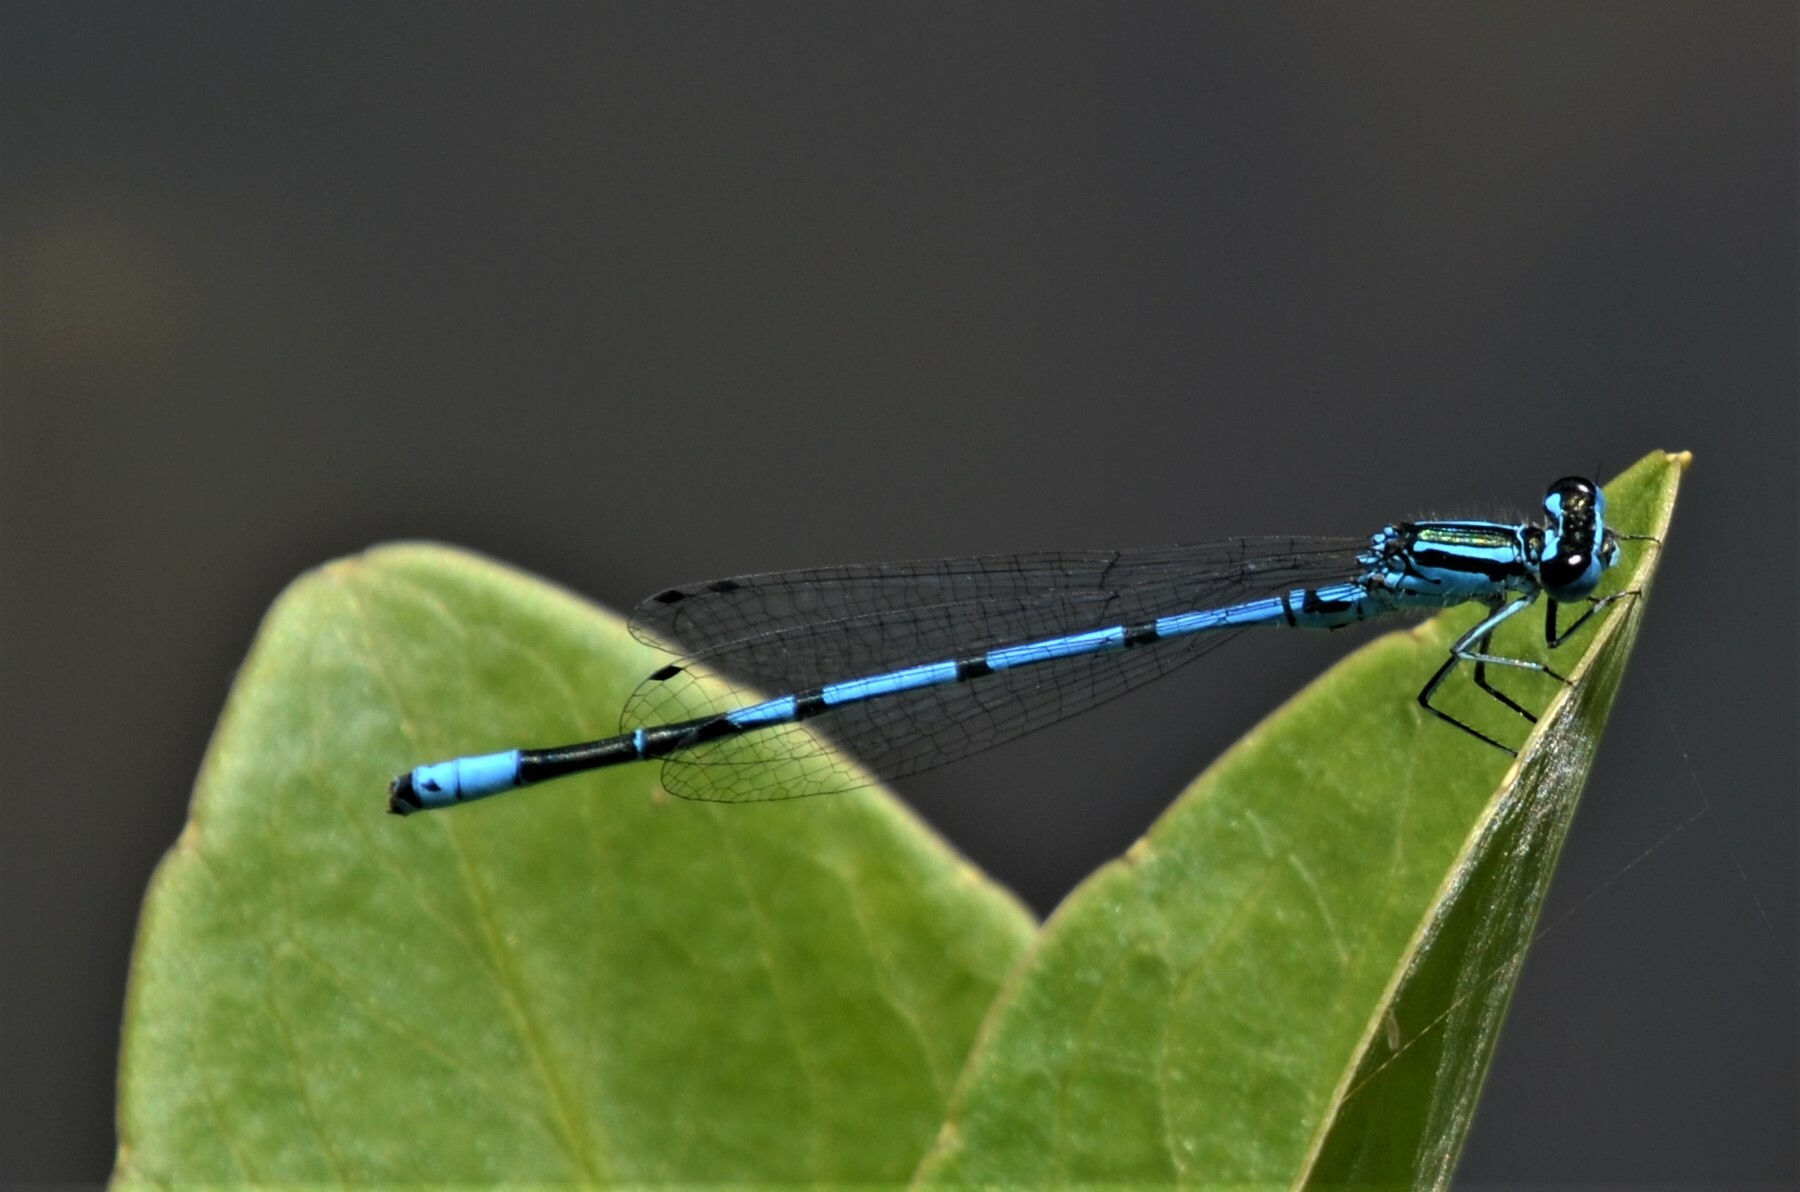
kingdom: Animalia
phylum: Arthropoda
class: Insecta
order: Odonata
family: Coenagrionidae
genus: Coenagrion
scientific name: Coenagrion puella
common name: Azure damselfly
